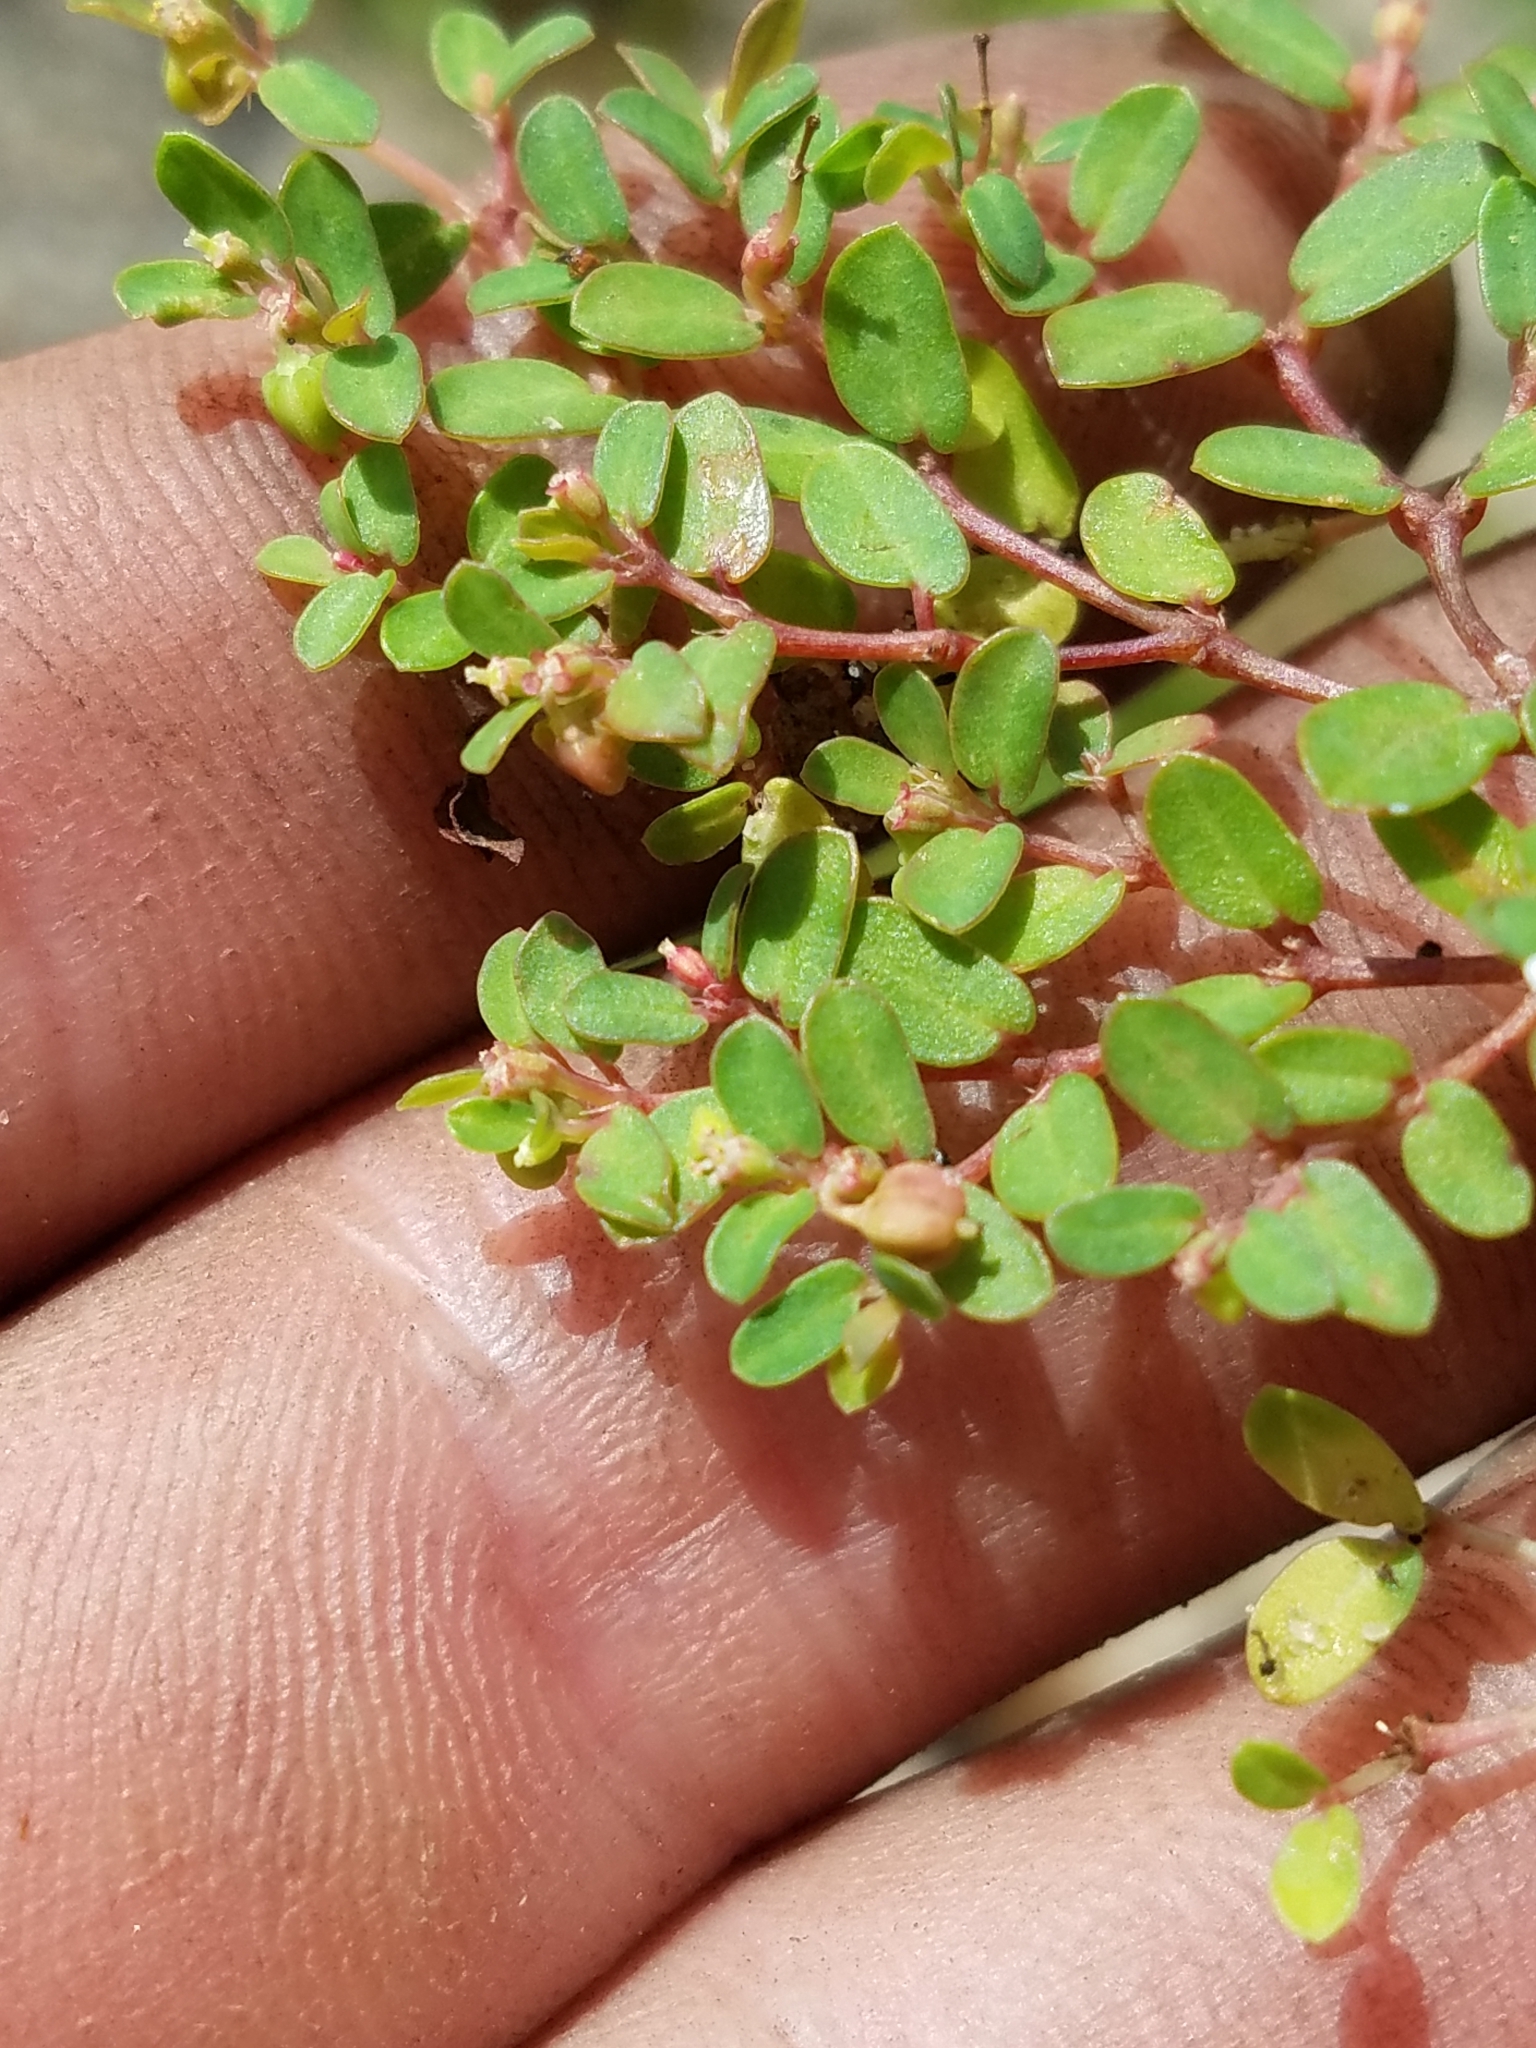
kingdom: Plantae
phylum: Tracheophyta
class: Magnoliopsida
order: Malpighiales
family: Euphorbiaceae
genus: Euphorbia
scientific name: Euphorbia cordifolia
